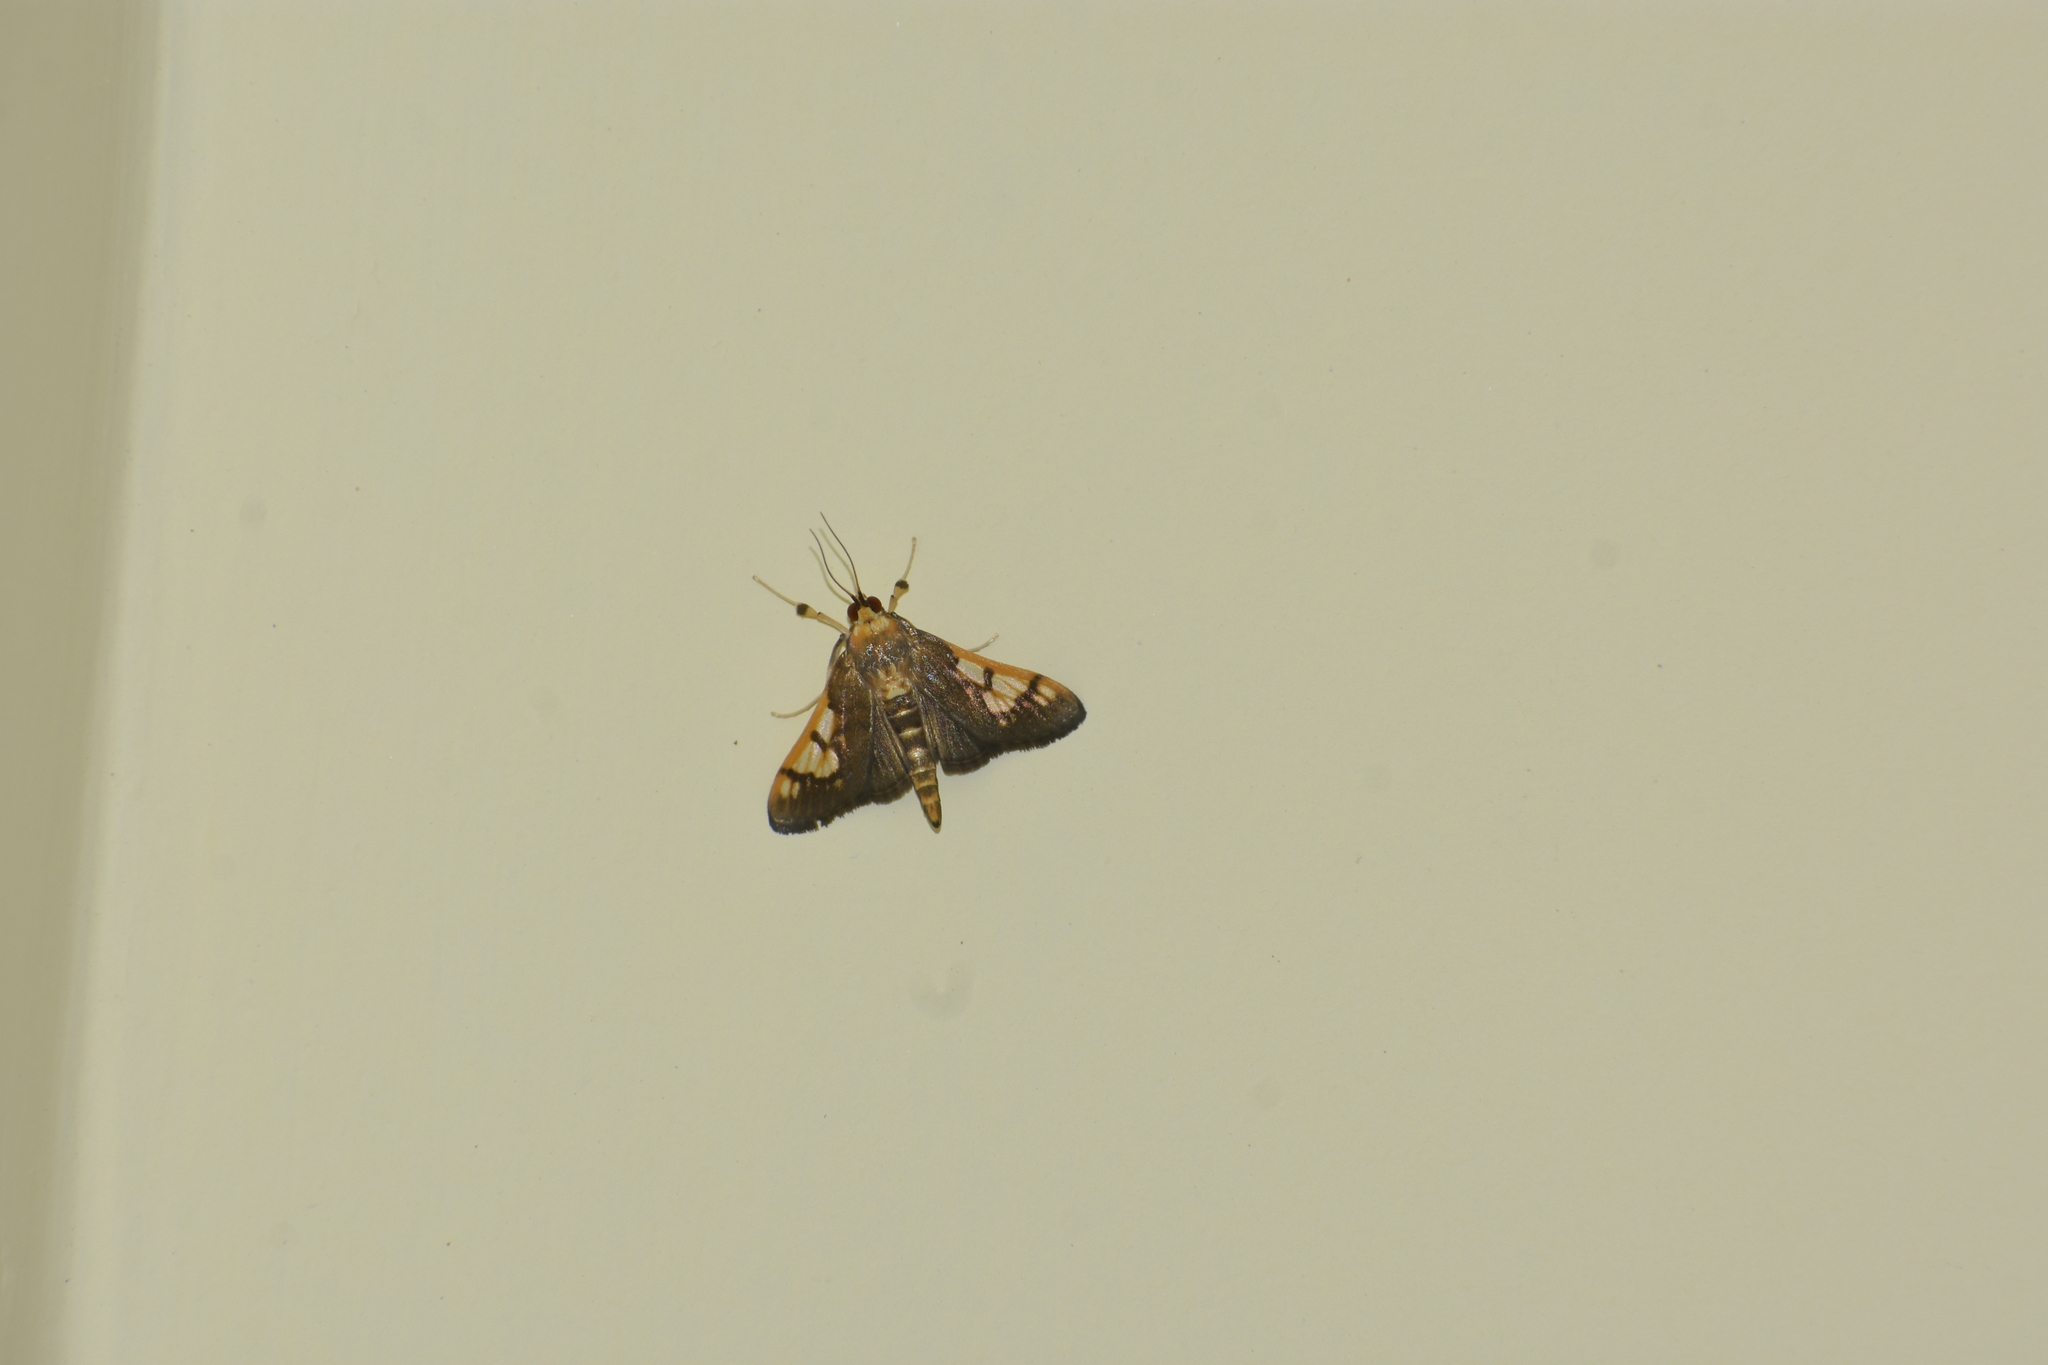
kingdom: Animalia
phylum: Arthropoda
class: Insecta
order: Lepidoptera
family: Crambidae
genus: Ulopeza
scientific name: Ulopeza idyalis
